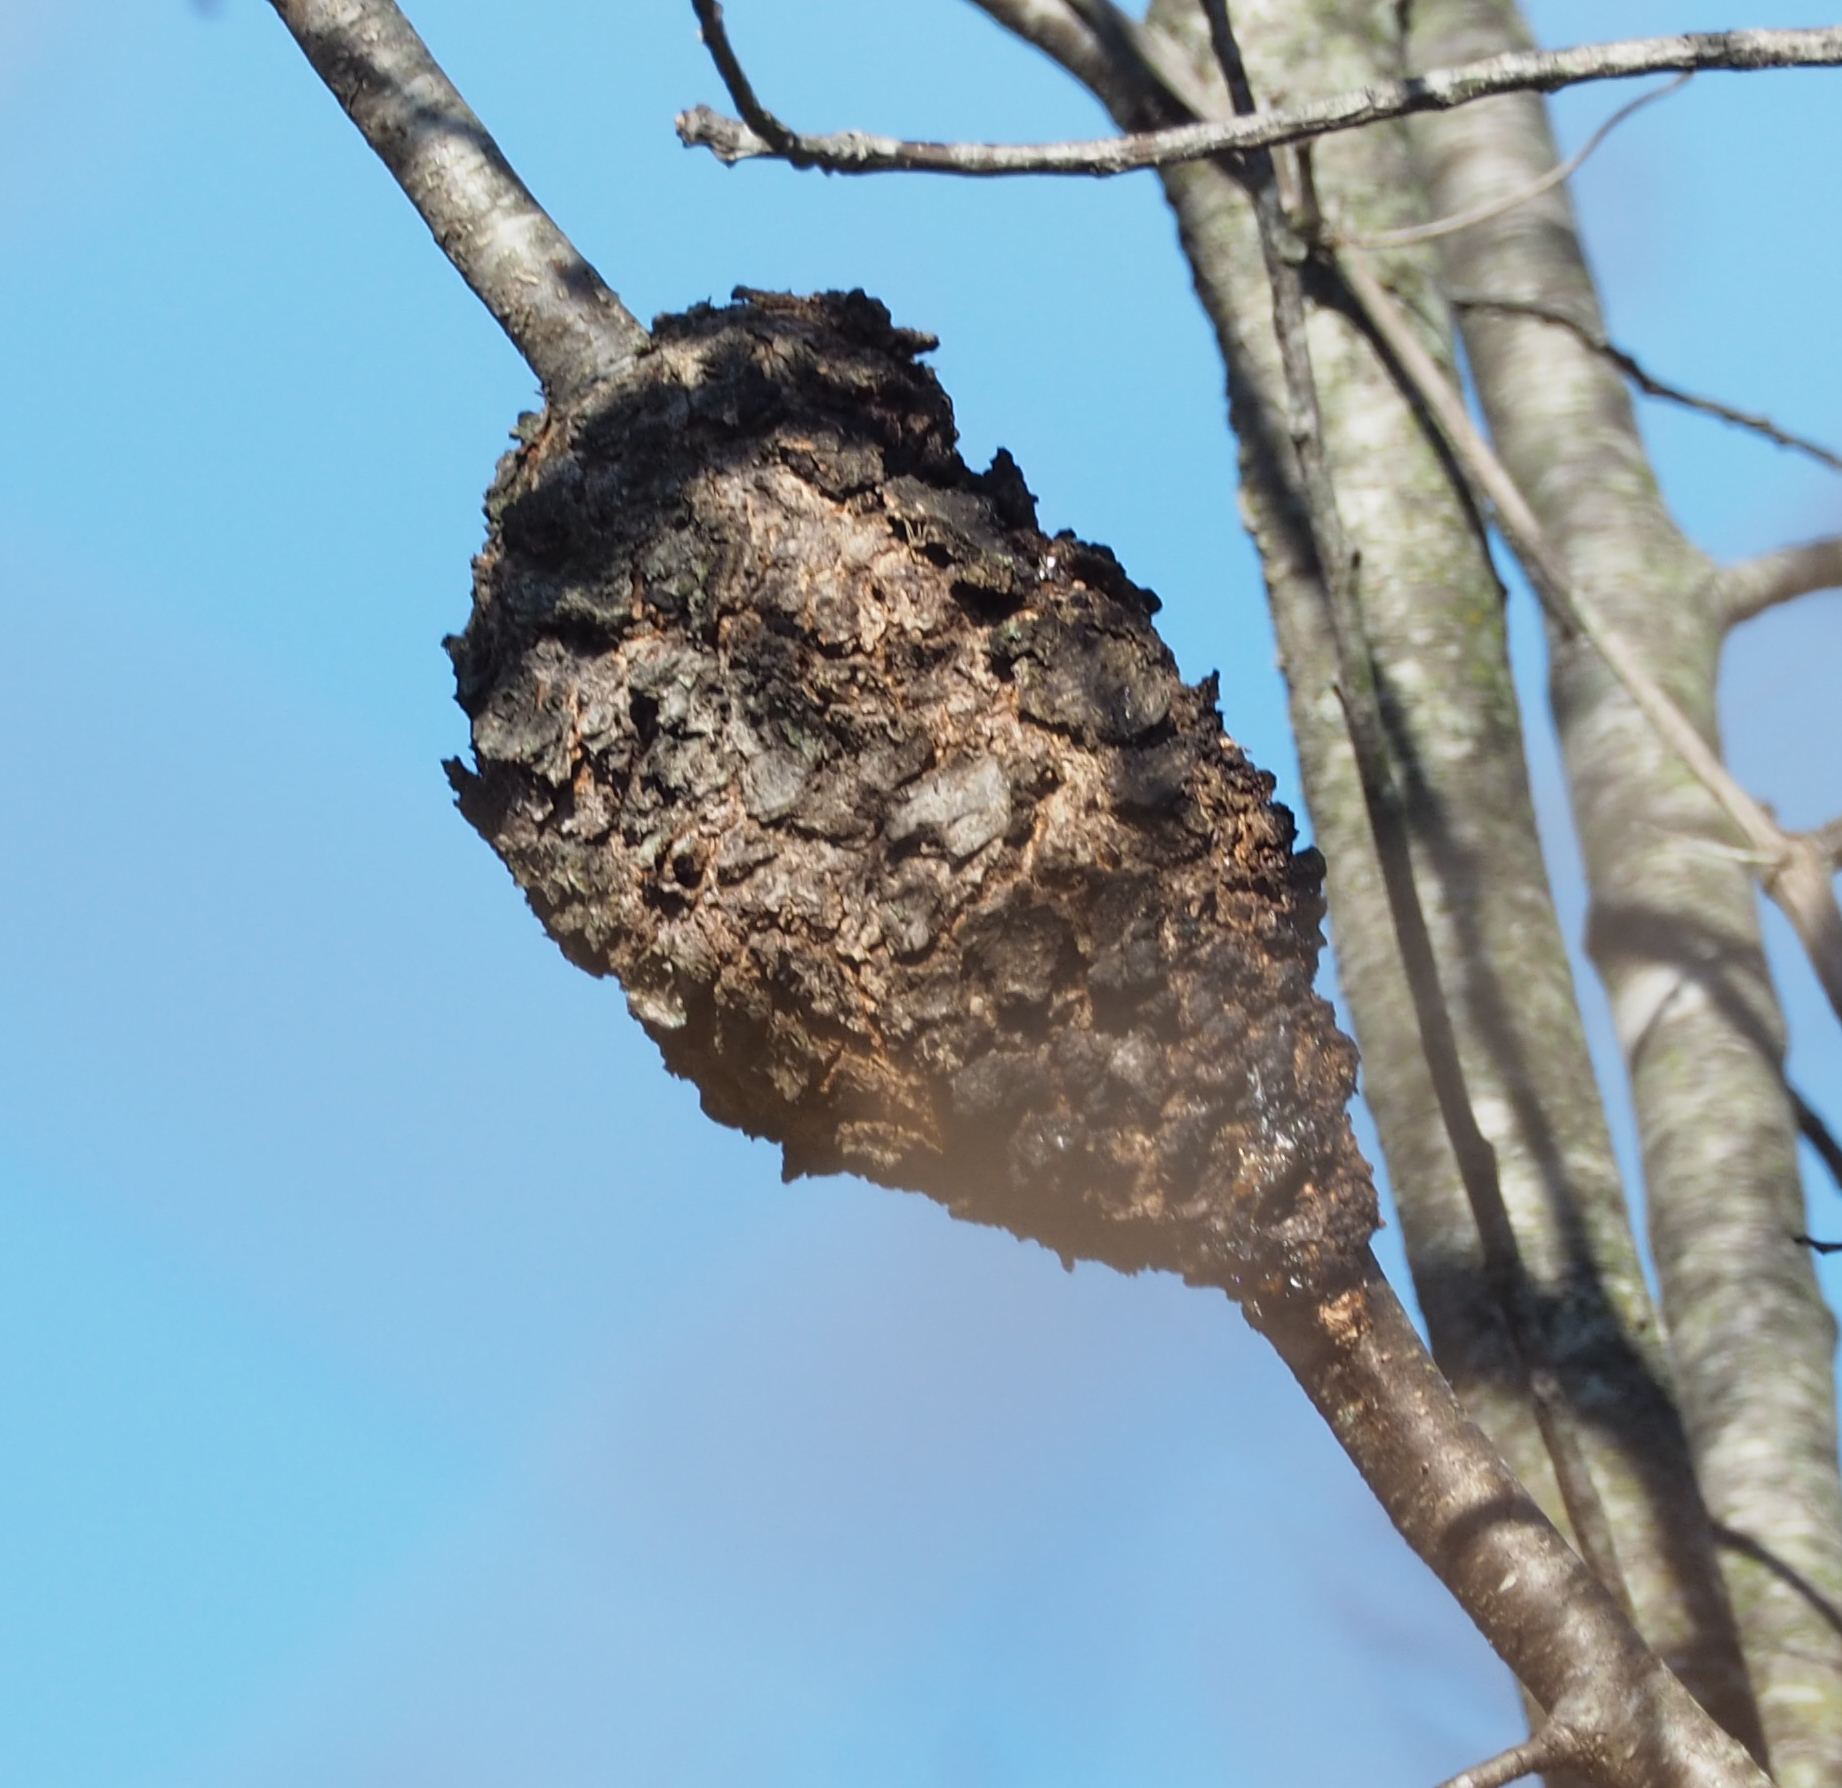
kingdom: Fungi
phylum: Ascomycota
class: Dothideomycetes
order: Venturiales
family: Venturiaceae
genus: Apiosporina
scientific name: Apiosporina morbosa
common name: Black knot
